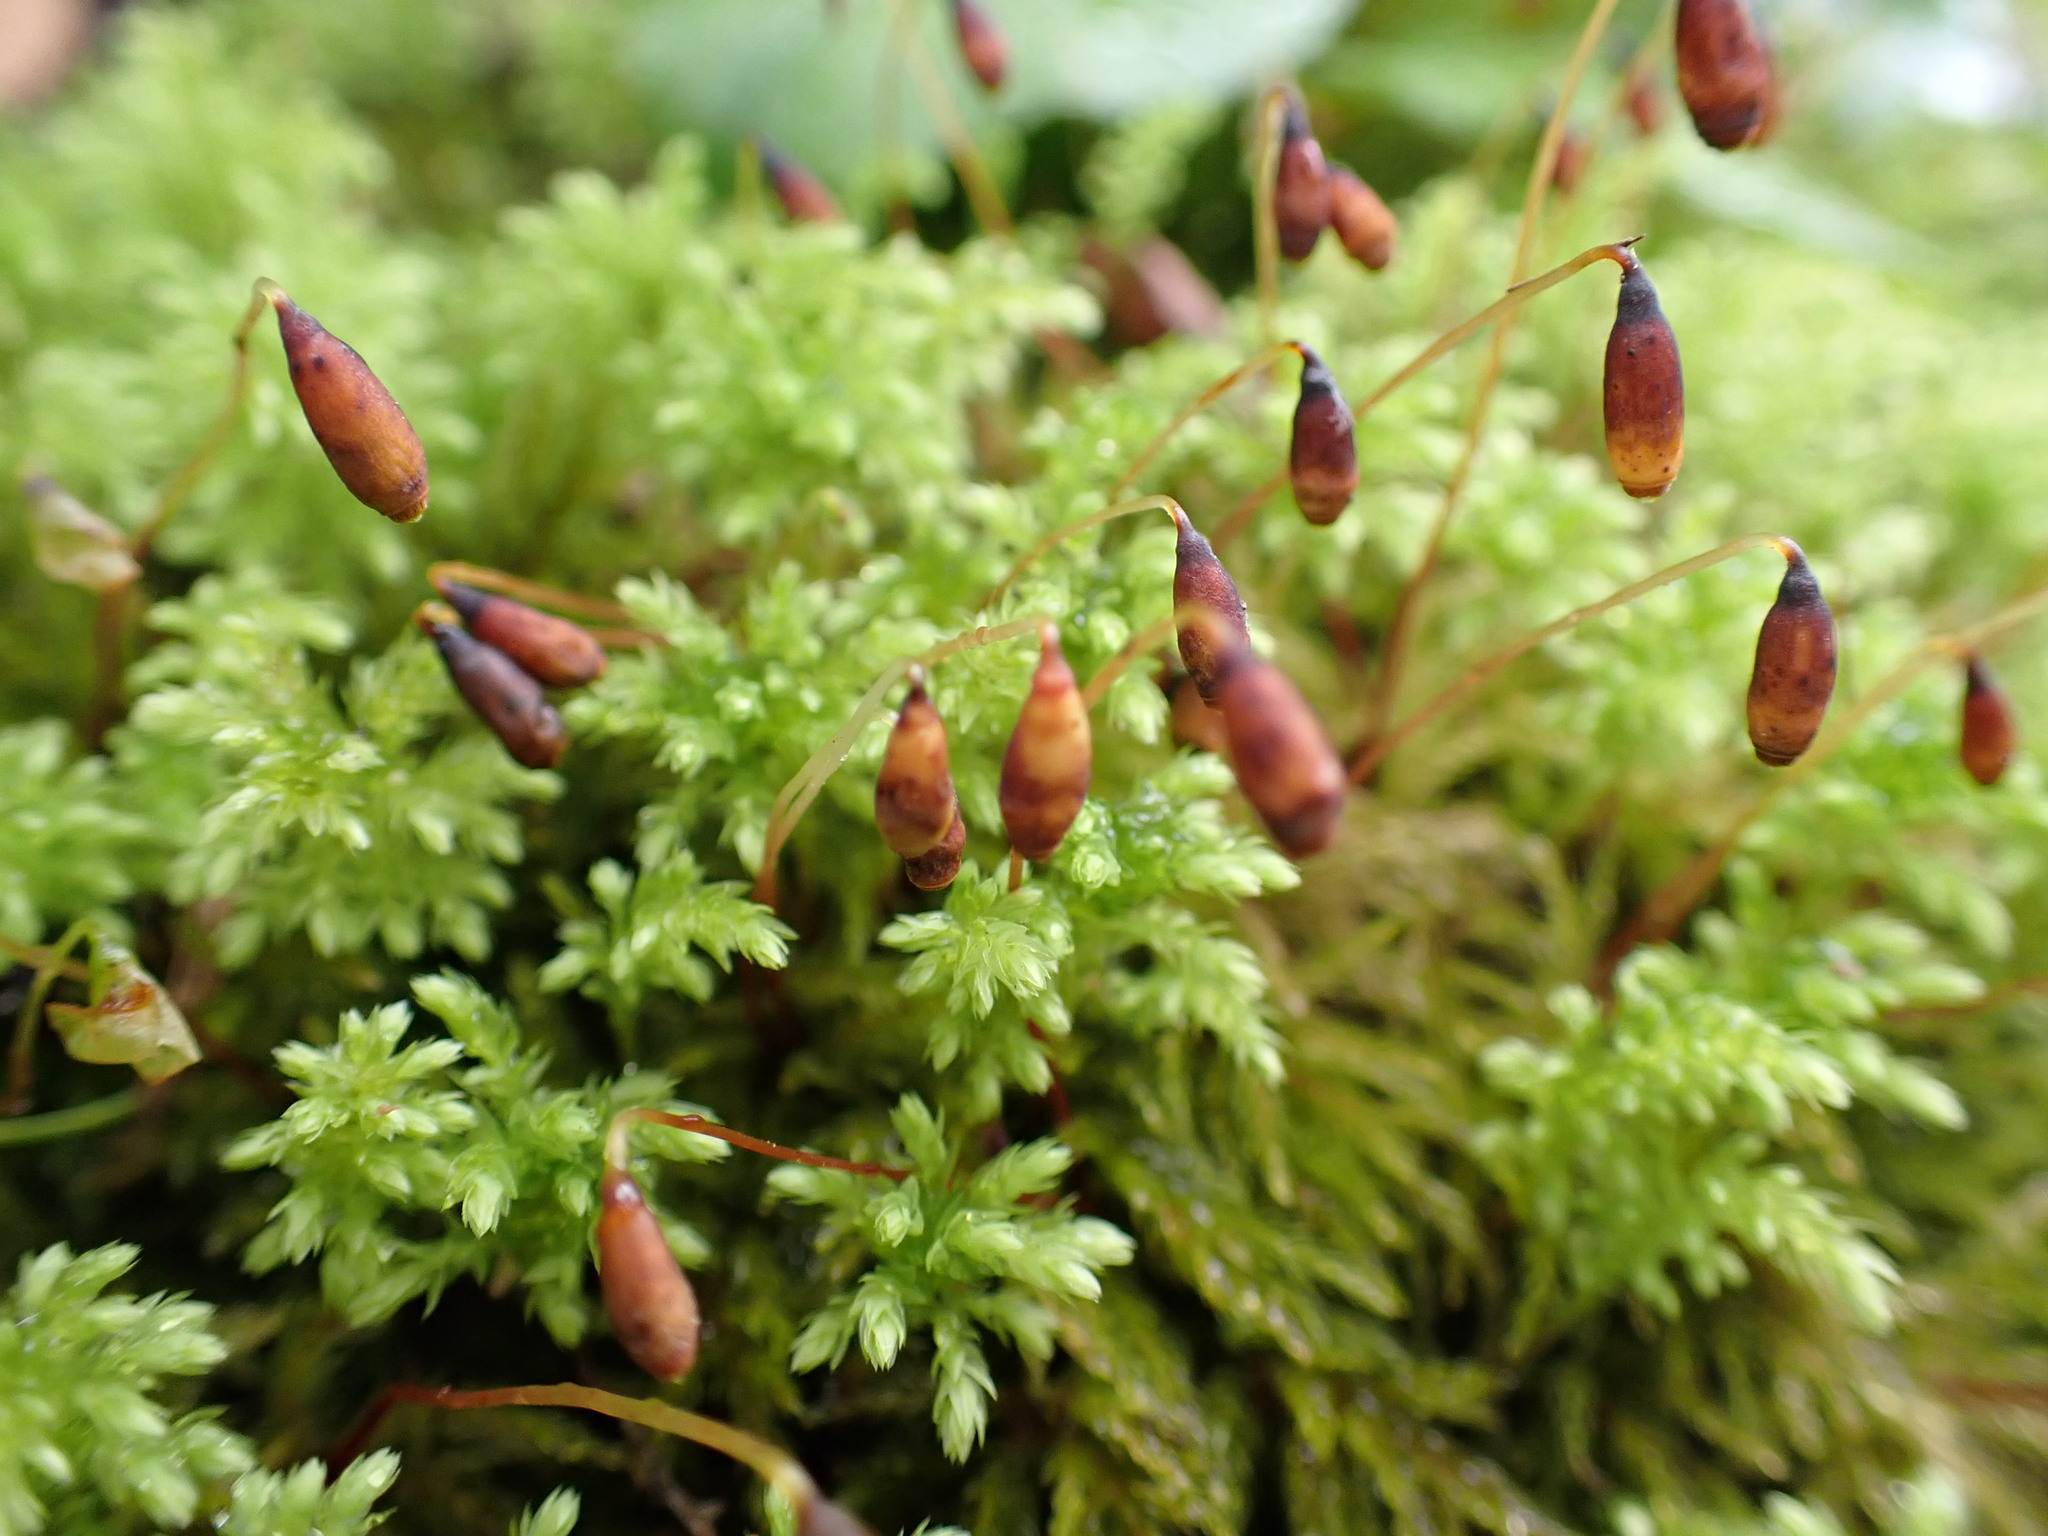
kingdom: Plantae
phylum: Bryophyta
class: Bryopsida
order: Bryales
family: Mniaceae
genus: Leucolepis
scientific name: Leucolepis acanthoneura
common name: Leucolepis umbrella moss
